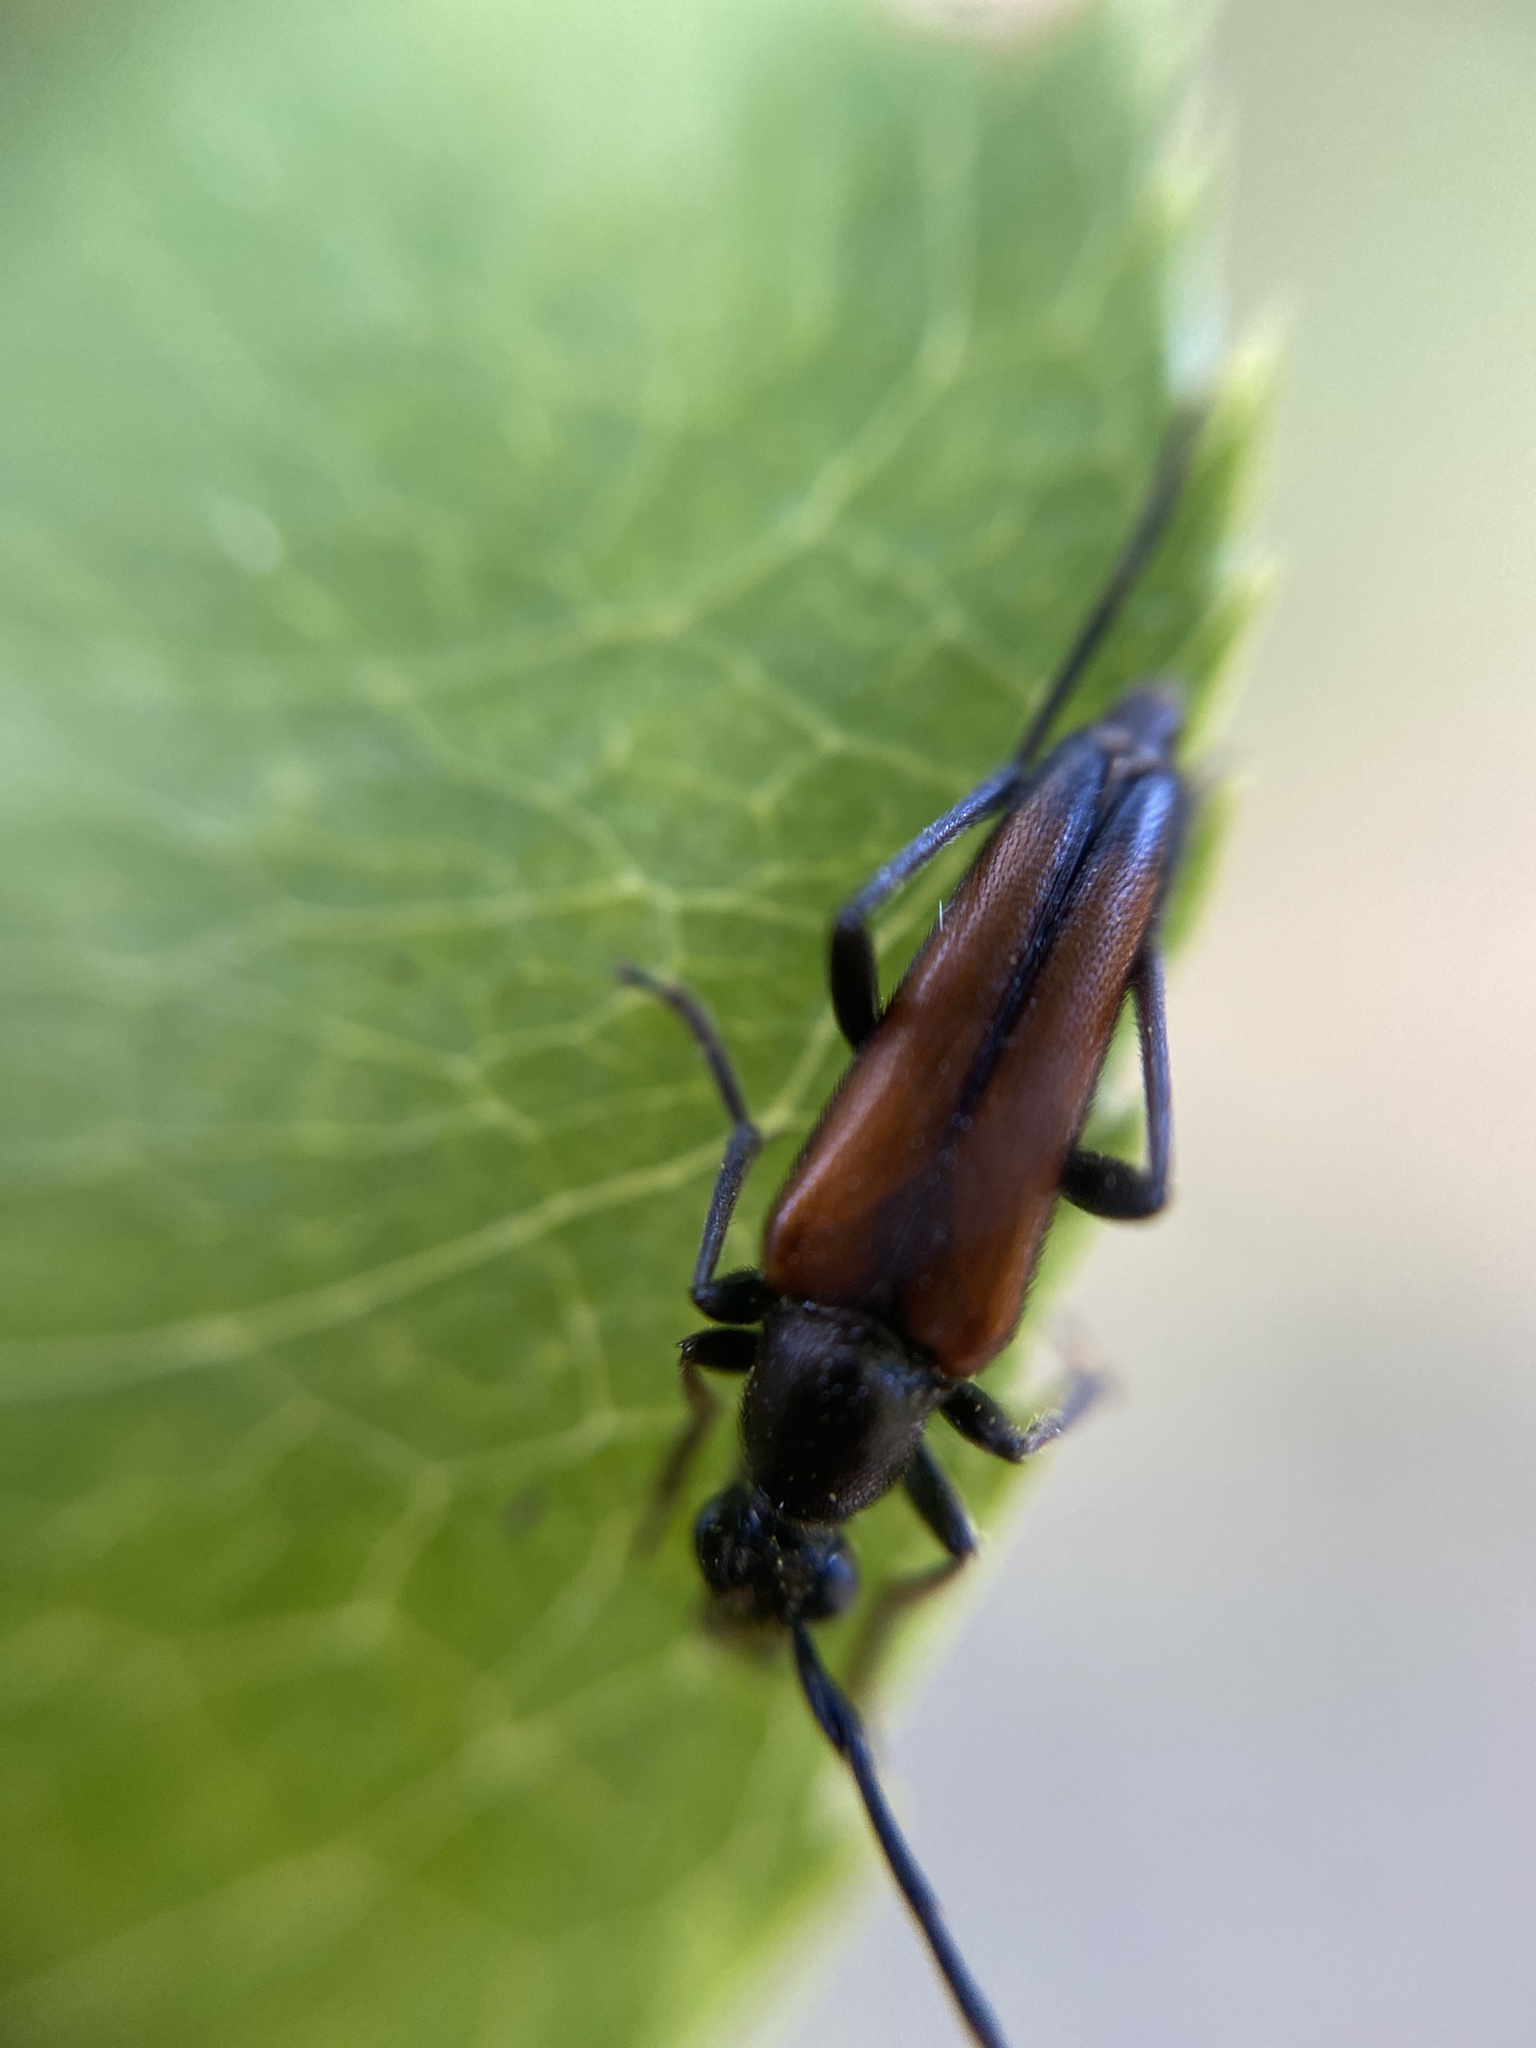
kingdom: Animalia
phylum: Arthropoda
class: Insecta
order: Coleoptera
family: Cerambycidae
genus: Stenurella
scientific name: Stenurella bifasciata
